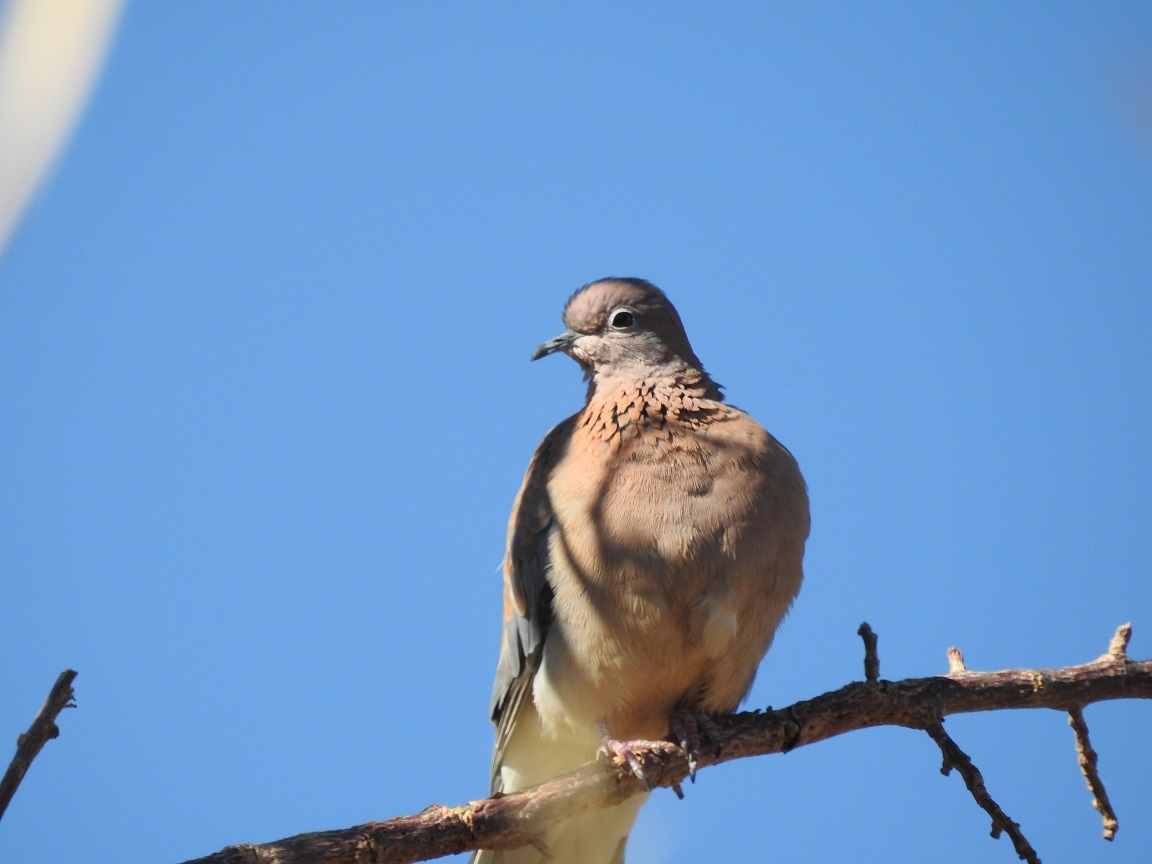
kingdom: Animalia
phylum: Chordata
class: Aves
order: Columbiformes
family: Columbidae
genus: Spilopelia
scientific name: Spilopelia senegalensis
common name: Laughing dove
